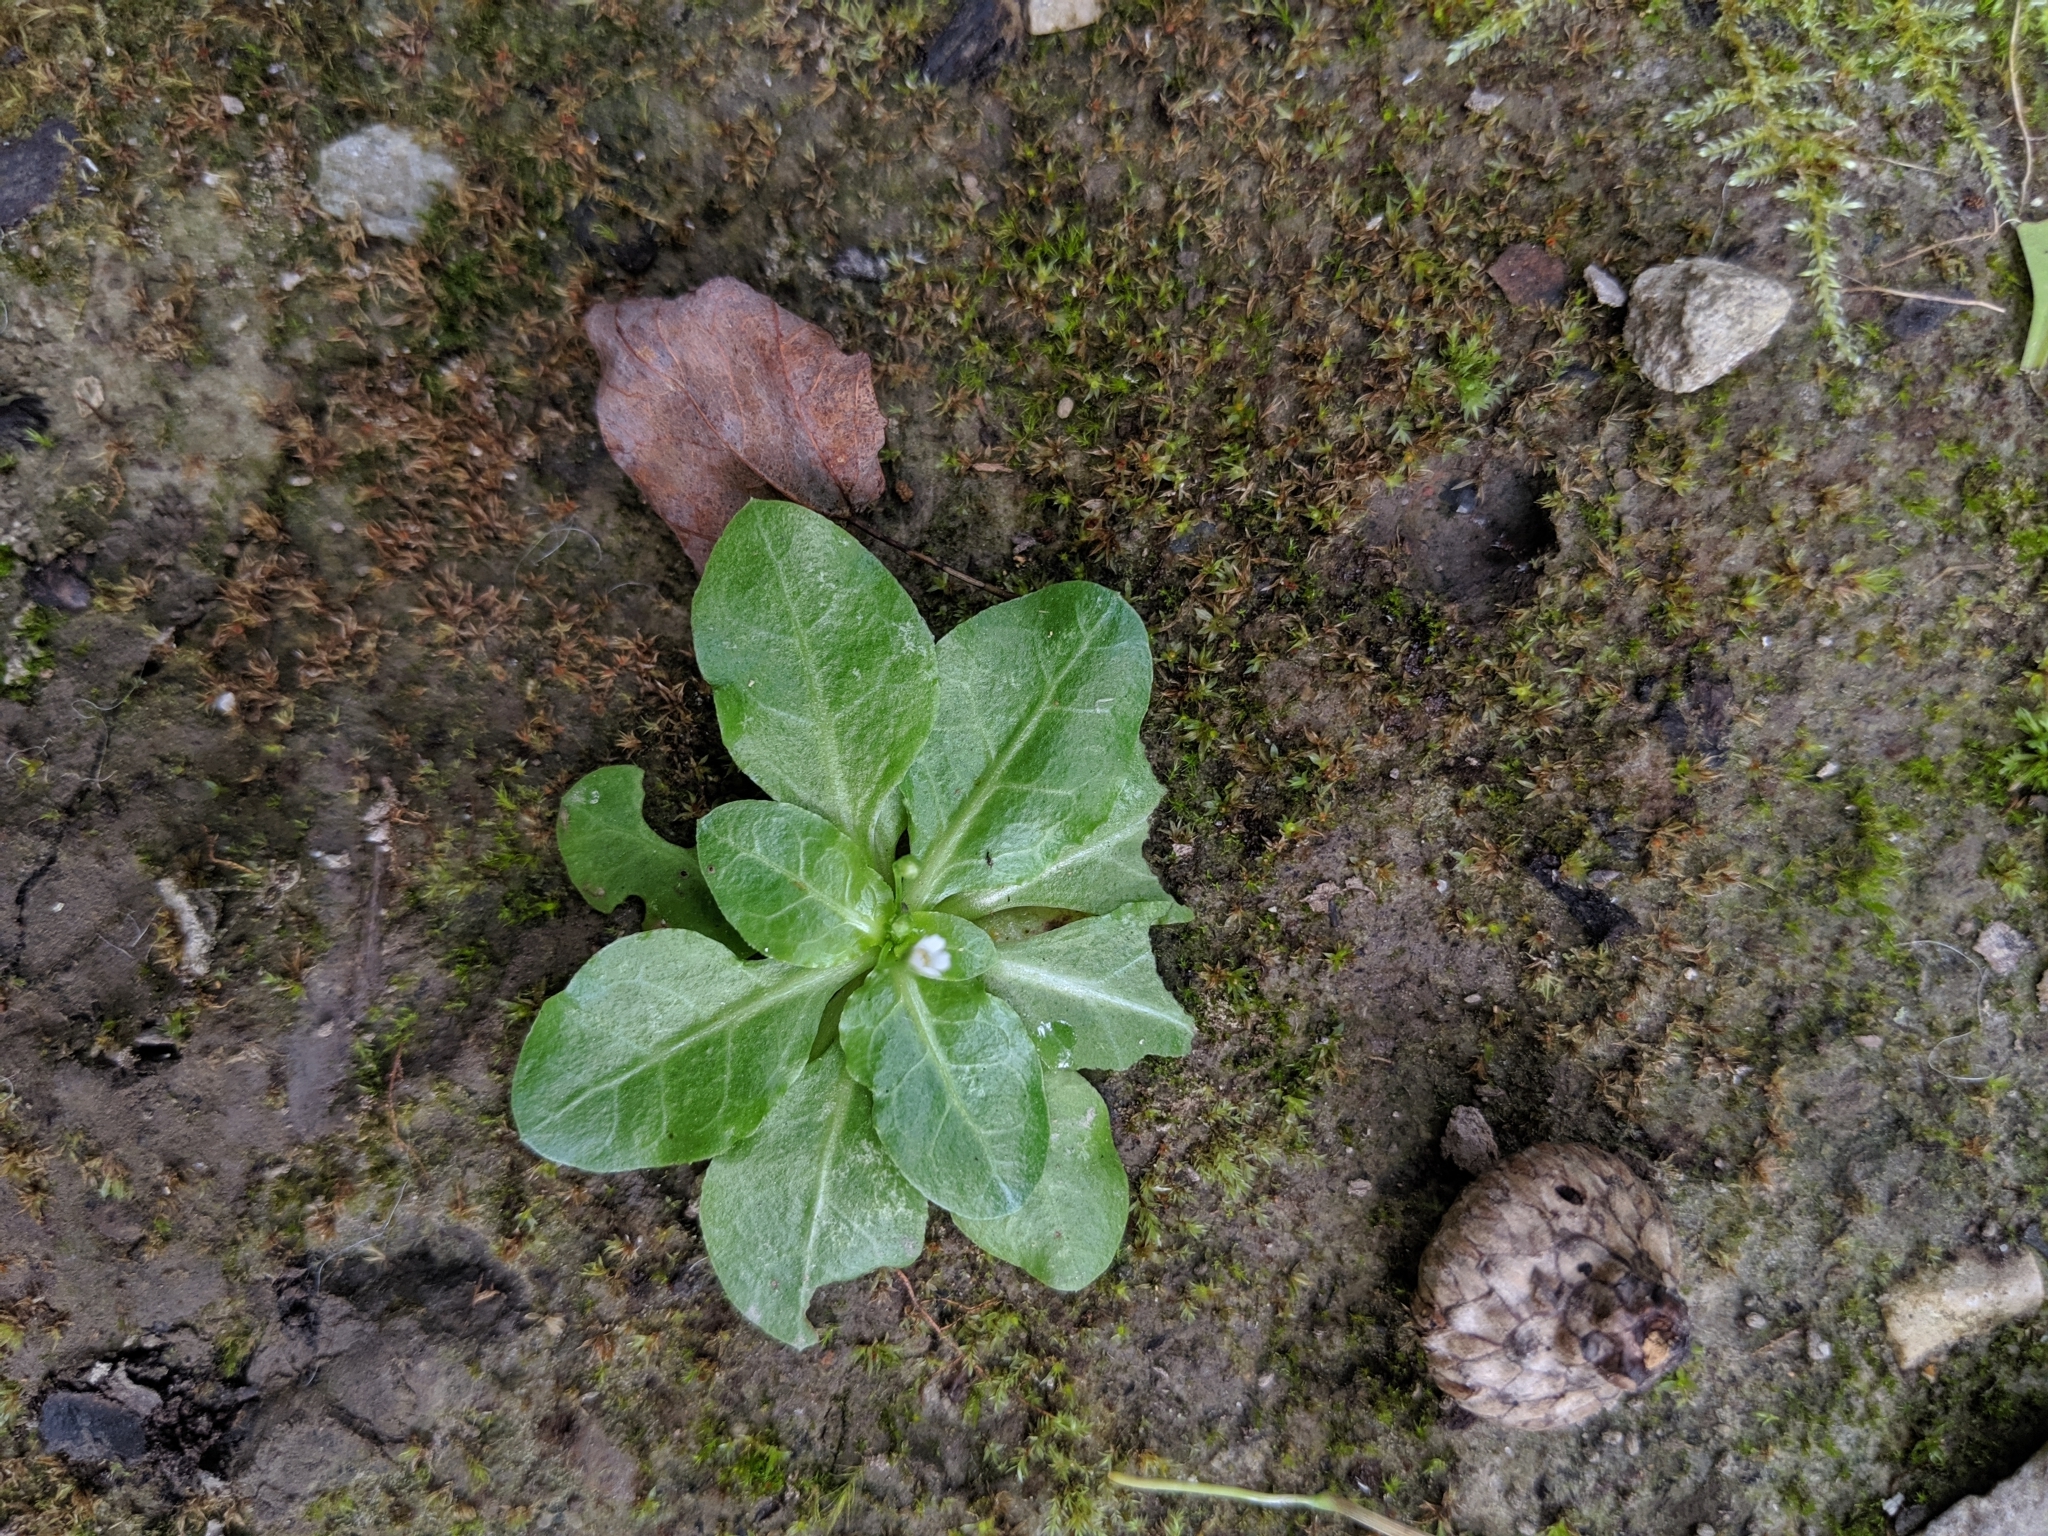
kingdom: Plantae
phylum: Tracheophyta
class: Magnoliopsida
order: Ericales
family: Primulaceae
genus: Samolus
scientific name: Samolus parviflorus
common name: False water pimpernel
